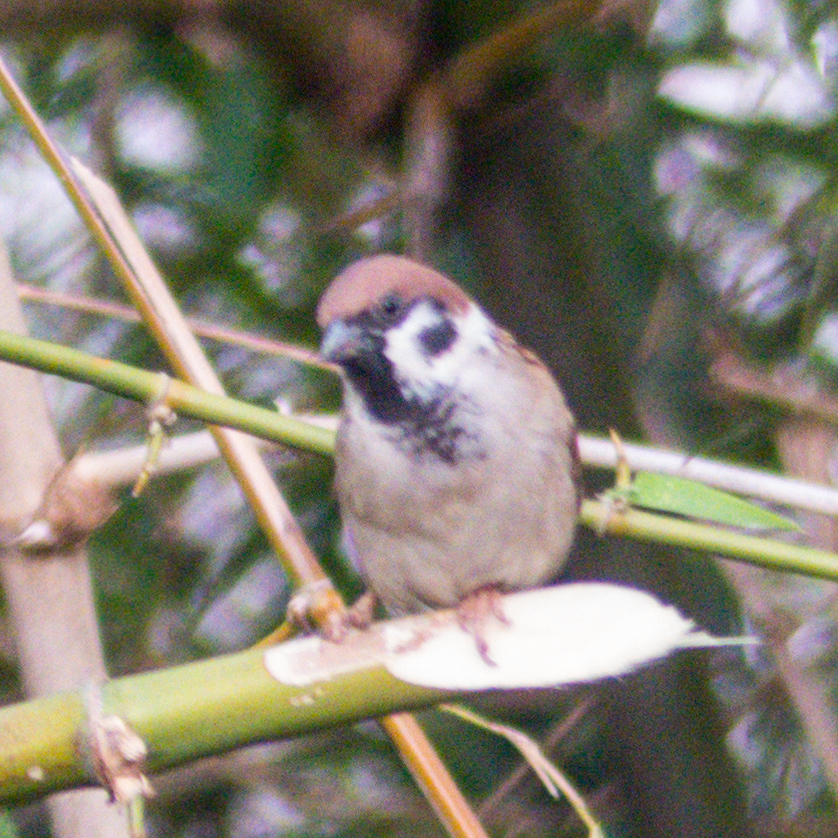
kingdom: Animalia
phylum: Chordata
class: Aves
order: Passeriformes
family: Passeridae
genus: Passer
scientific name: Passer montanus
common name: Eurasian tree sparrow
